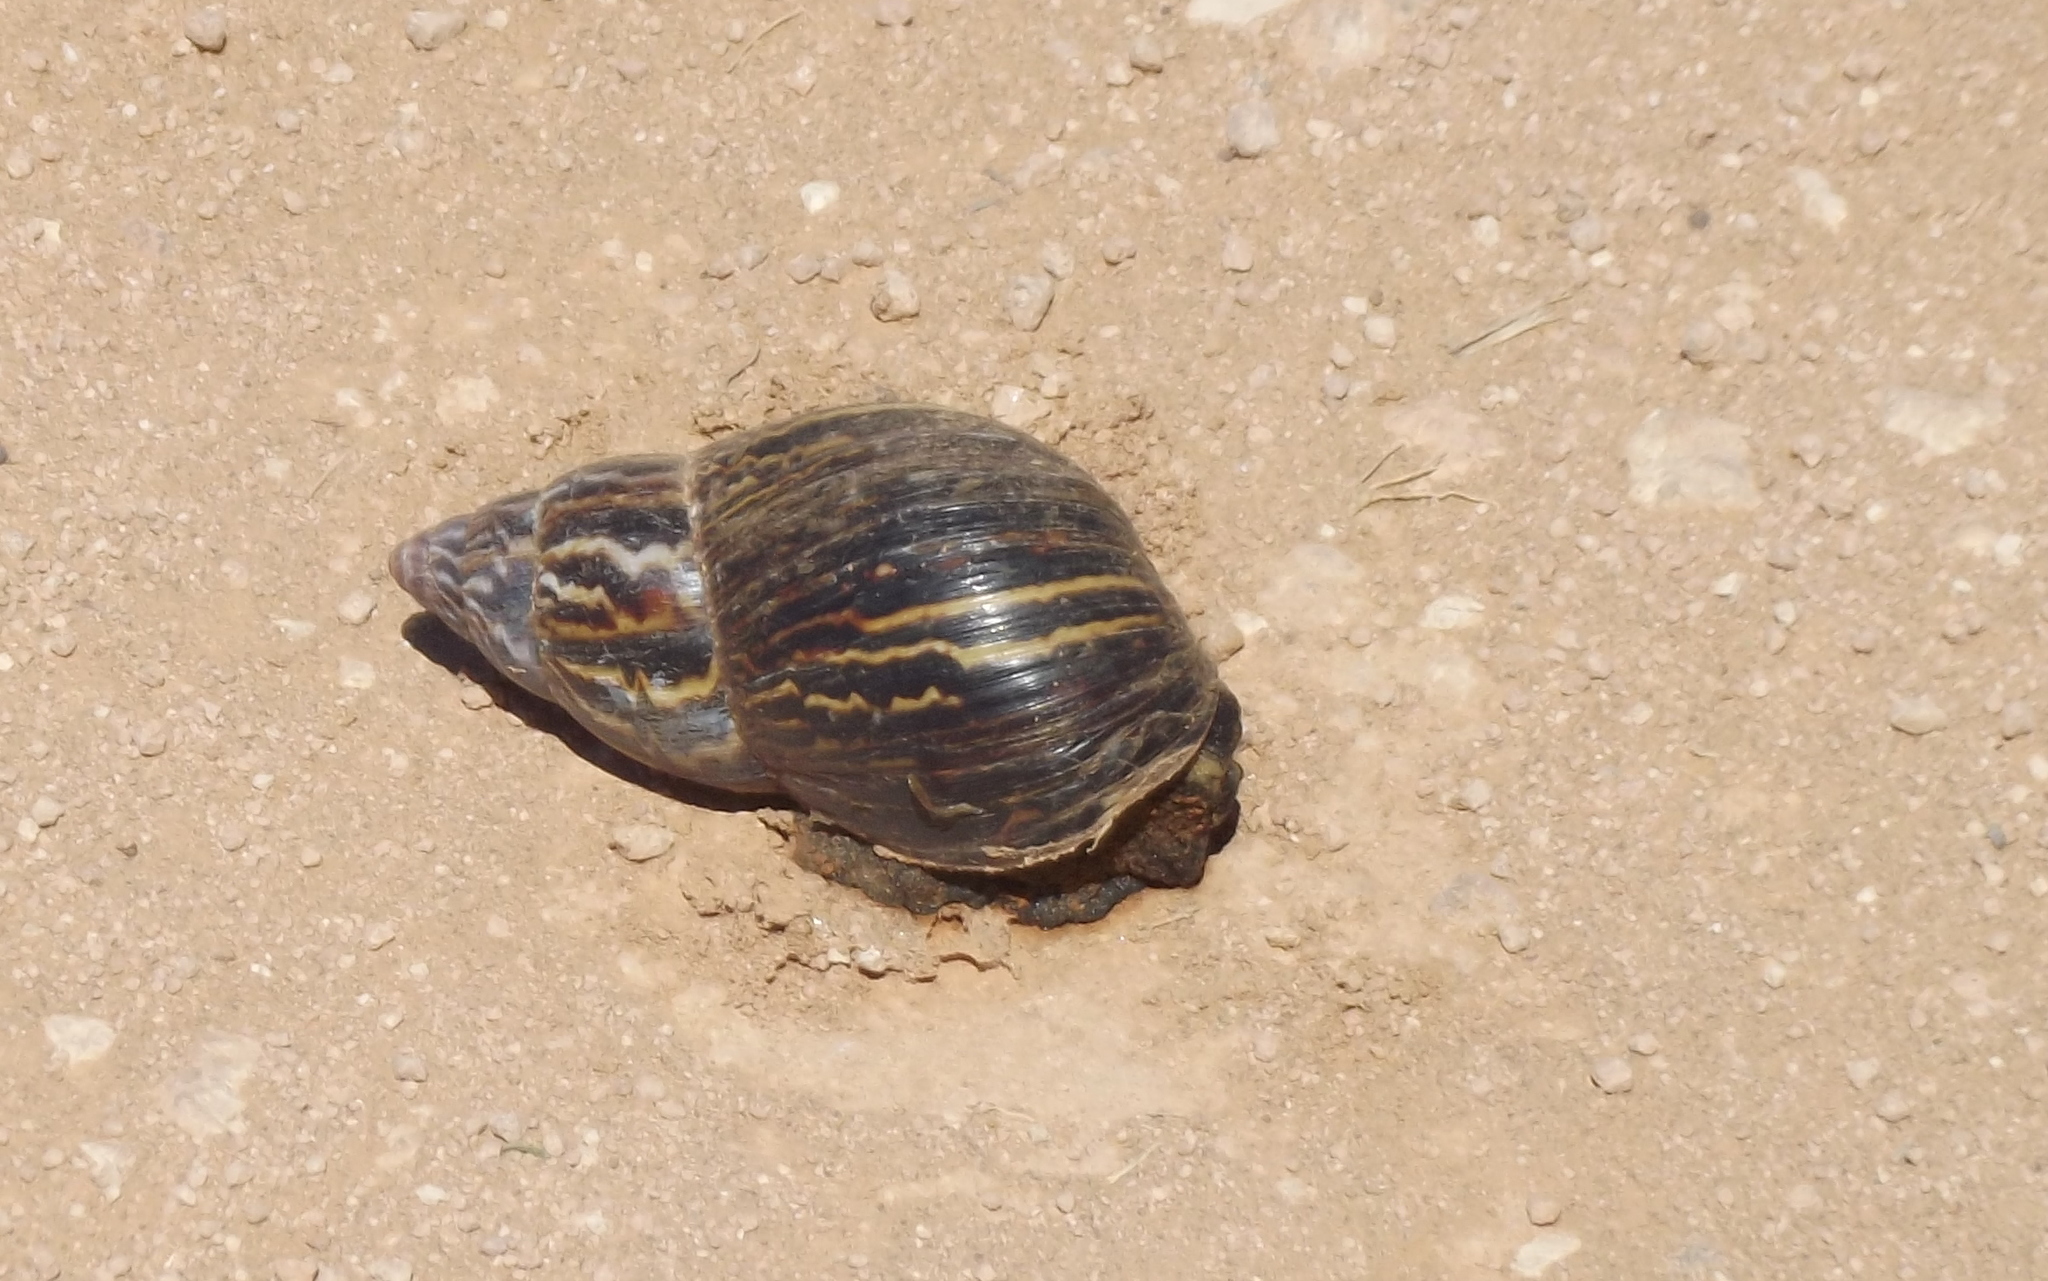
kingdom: Animalia
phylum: Mollusca
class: Gastropoda
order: Stylommatophora
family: Achatinidae
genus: Cochlitoma
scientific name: Cochlitoma zebra
